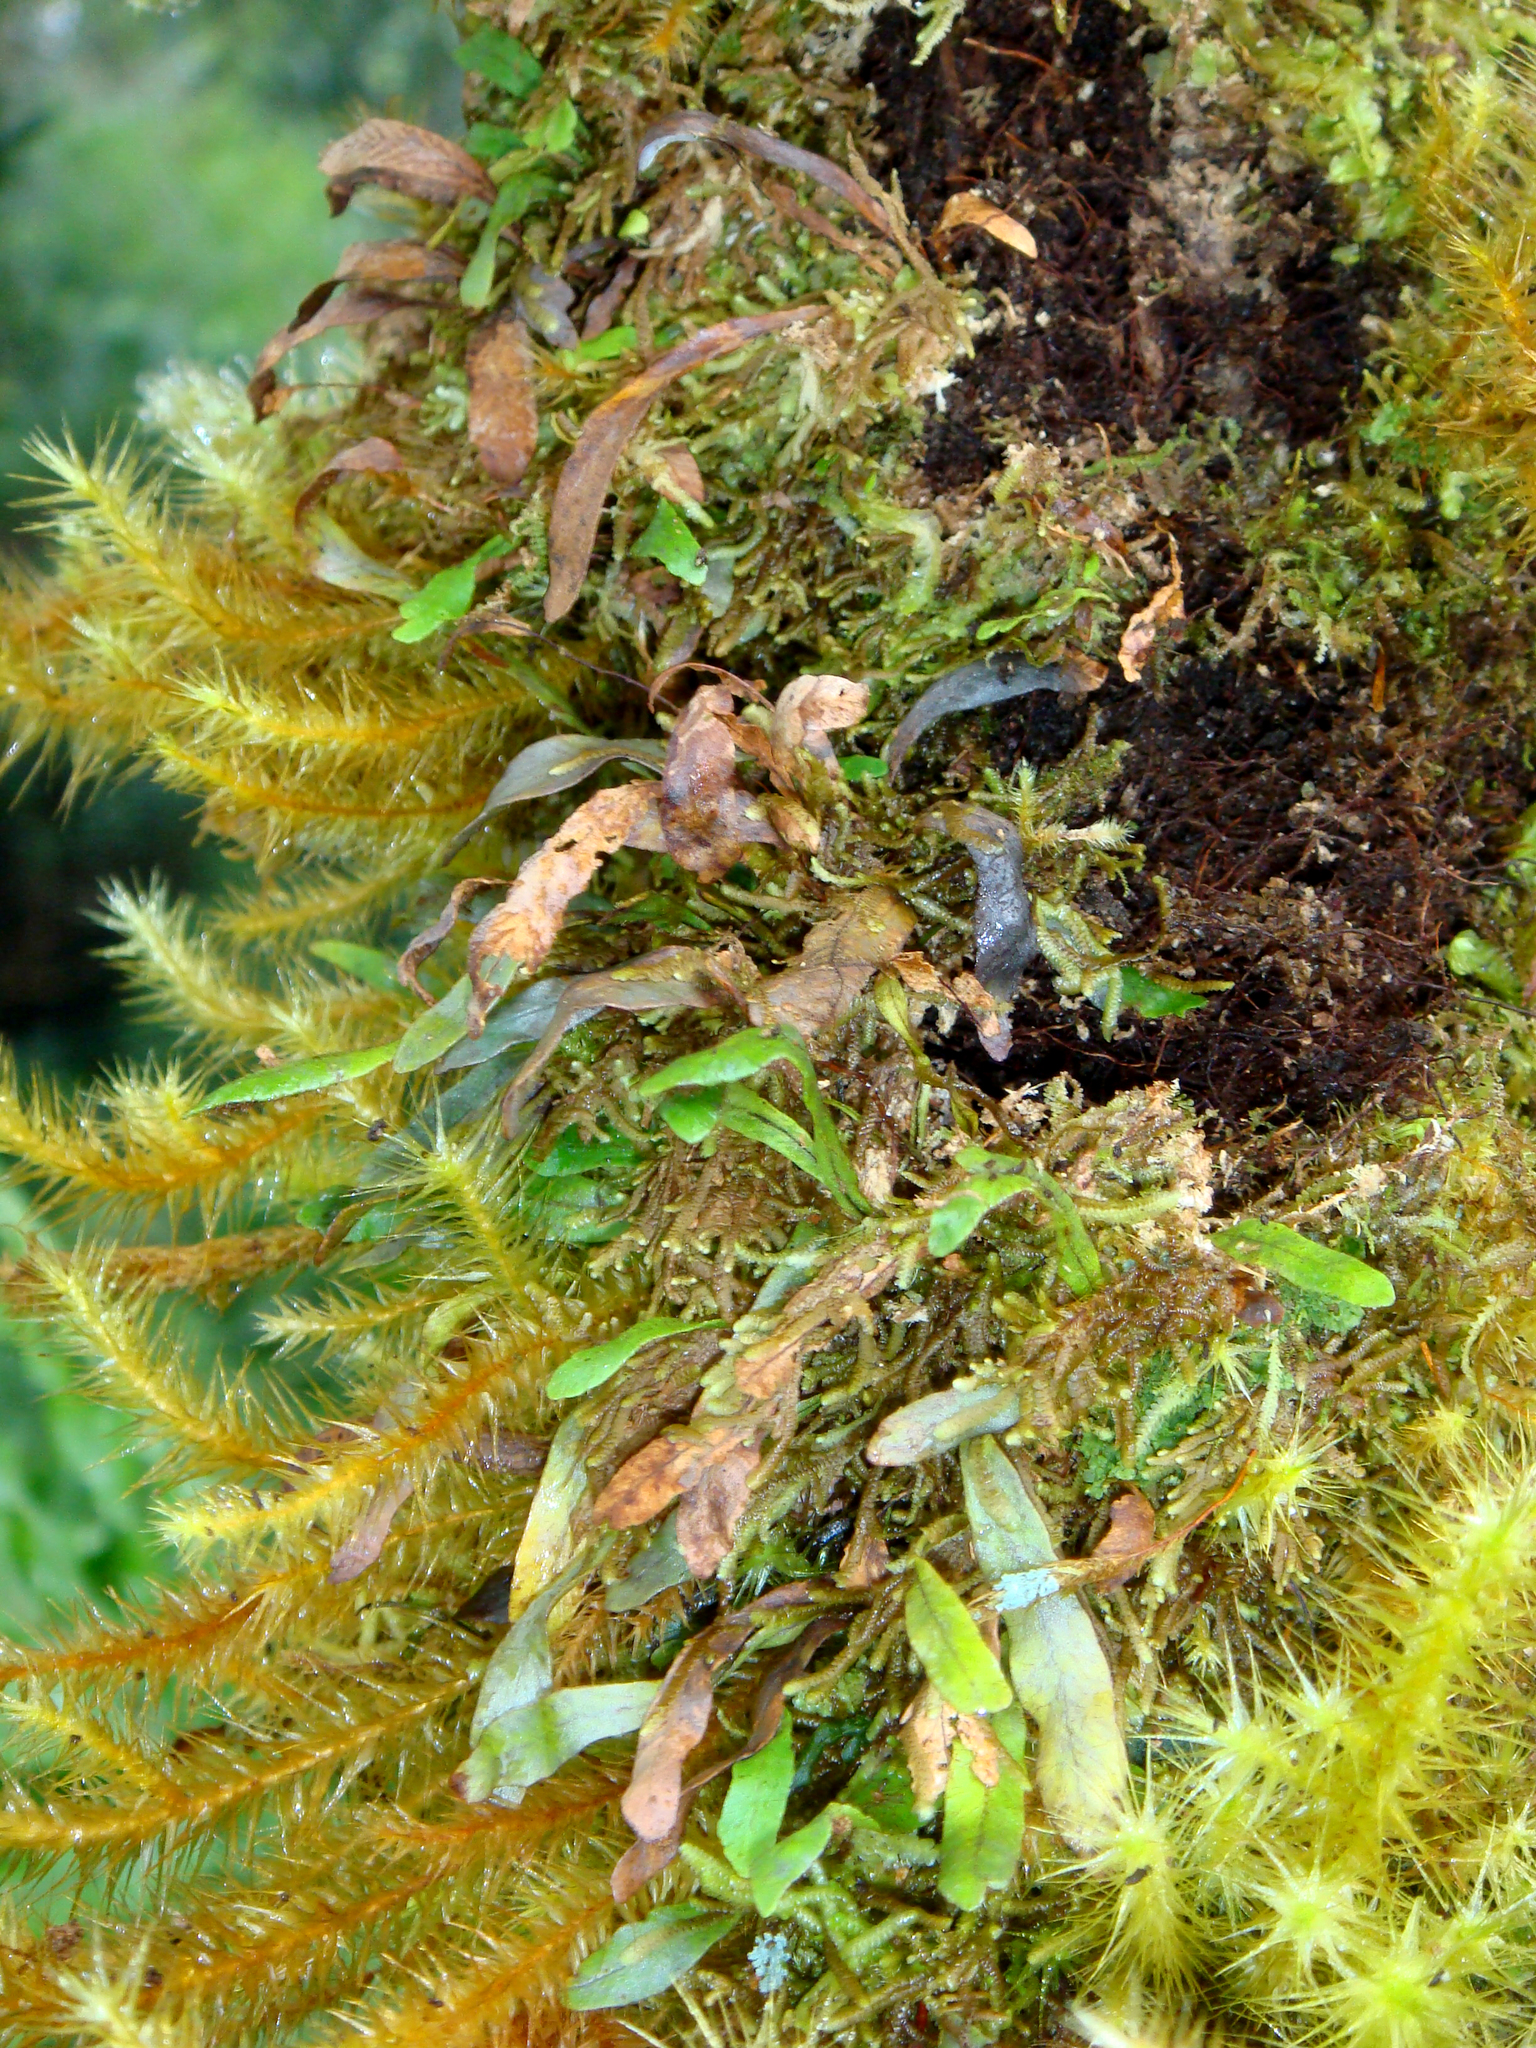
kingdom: Plantae
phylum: Tracheophyta
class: Polypodiopsida
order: Polypodiales
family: Polypodiaceae
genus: Oreogrammitis
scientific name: Oreogrammitis cheesemanii
